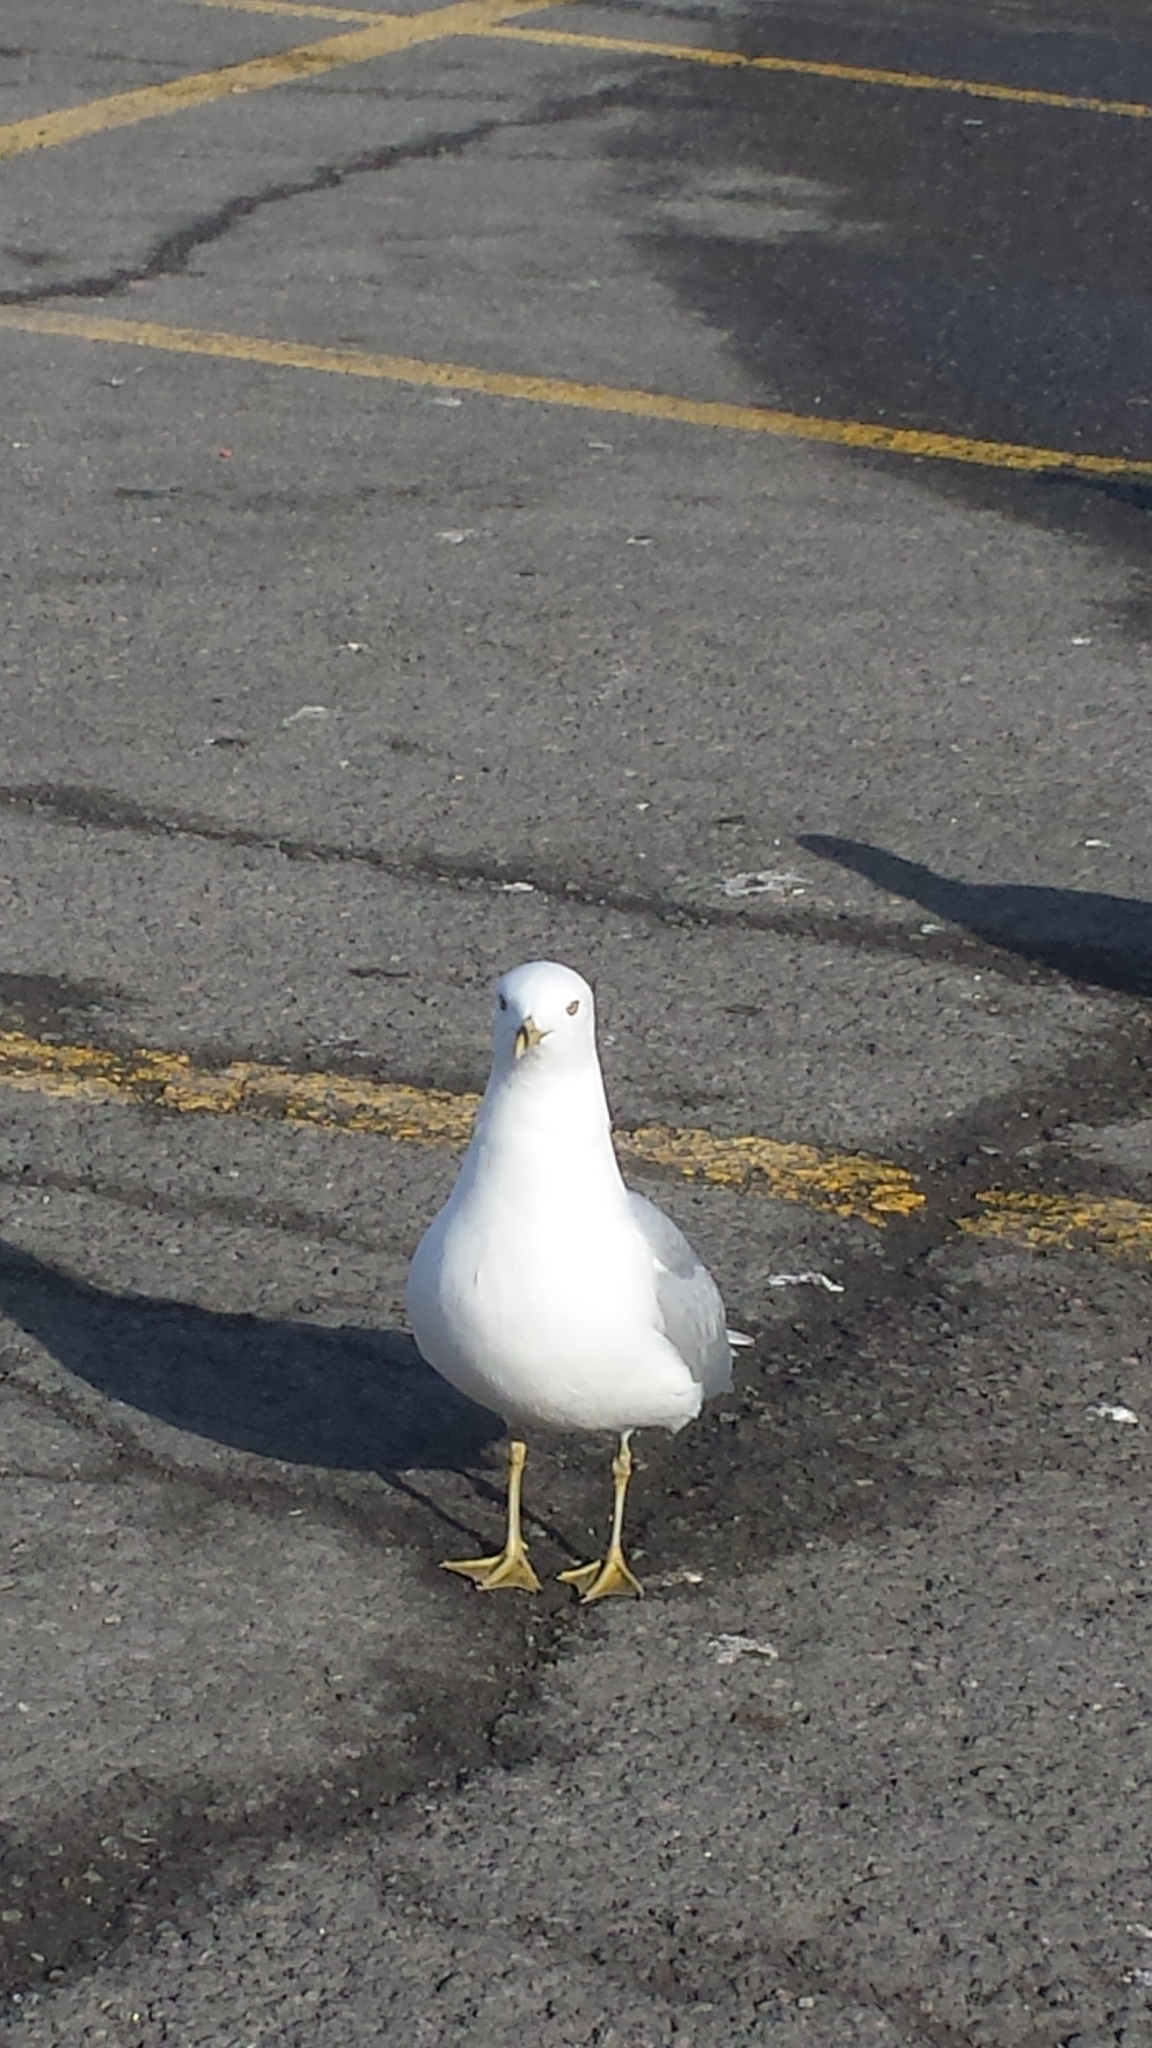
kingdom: Animalia
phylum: Chordata
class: Aves
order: Charadriiformes
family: Laridae
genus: Larus
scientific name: Larus delawarensis
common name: Ring-billed gull
